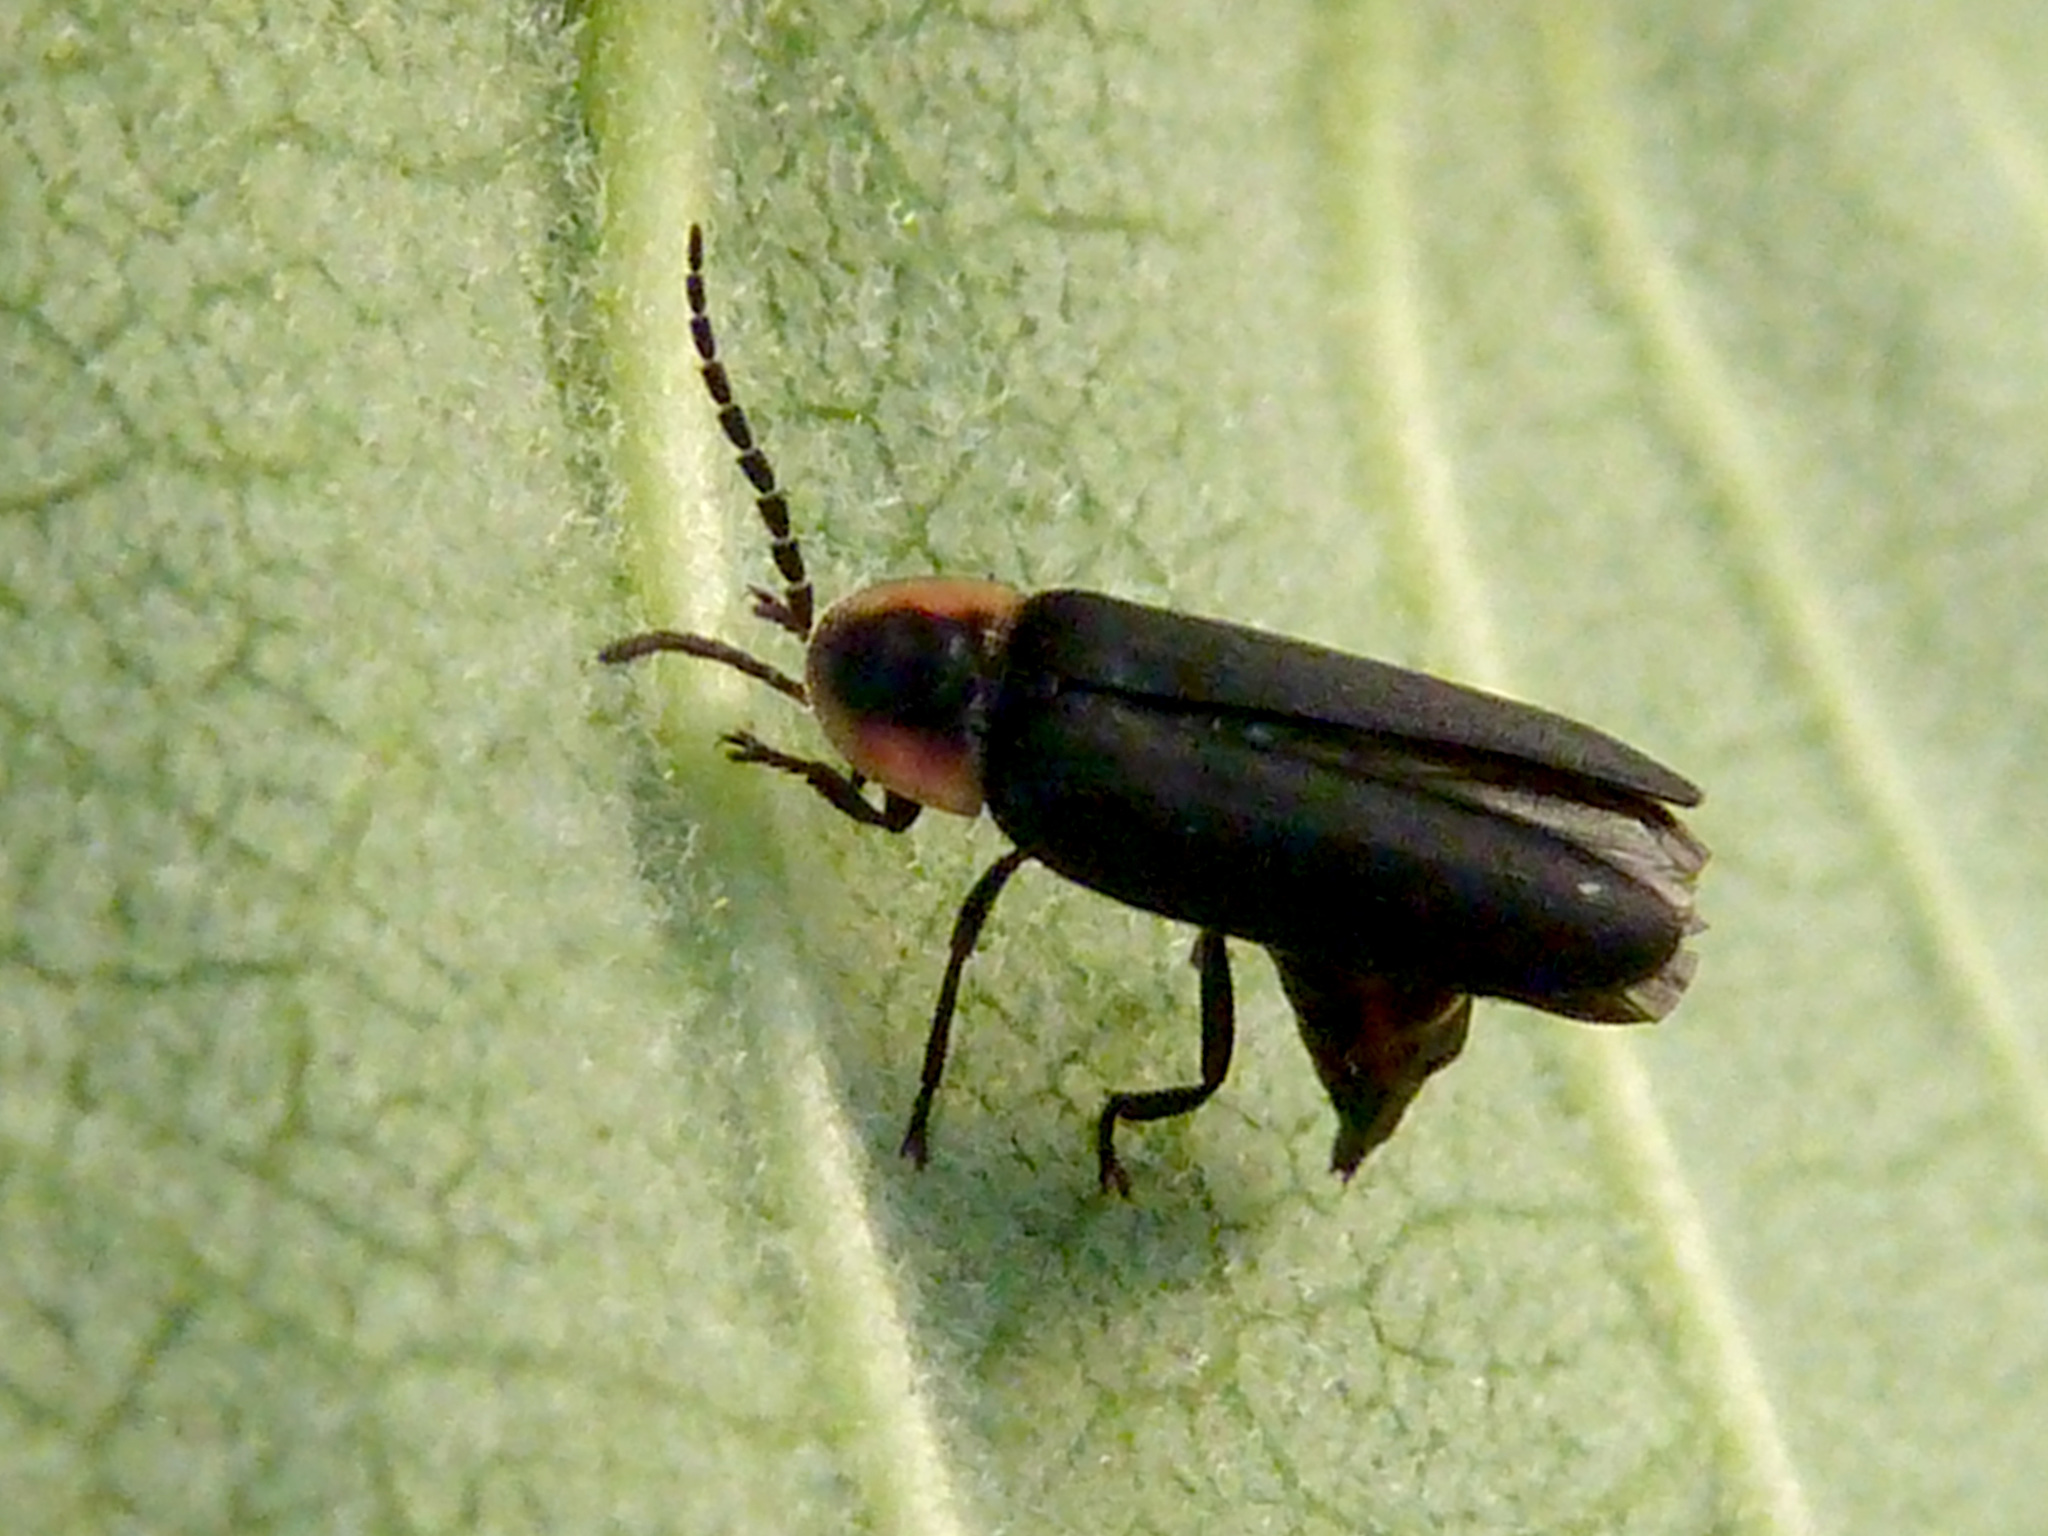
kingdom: Animalia
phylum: Arthropoda
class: Insecta
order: Coleoptera
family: Lampyridae
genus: Pyropyga
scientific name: Pyropyga decipiens
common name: Sneaky elf
